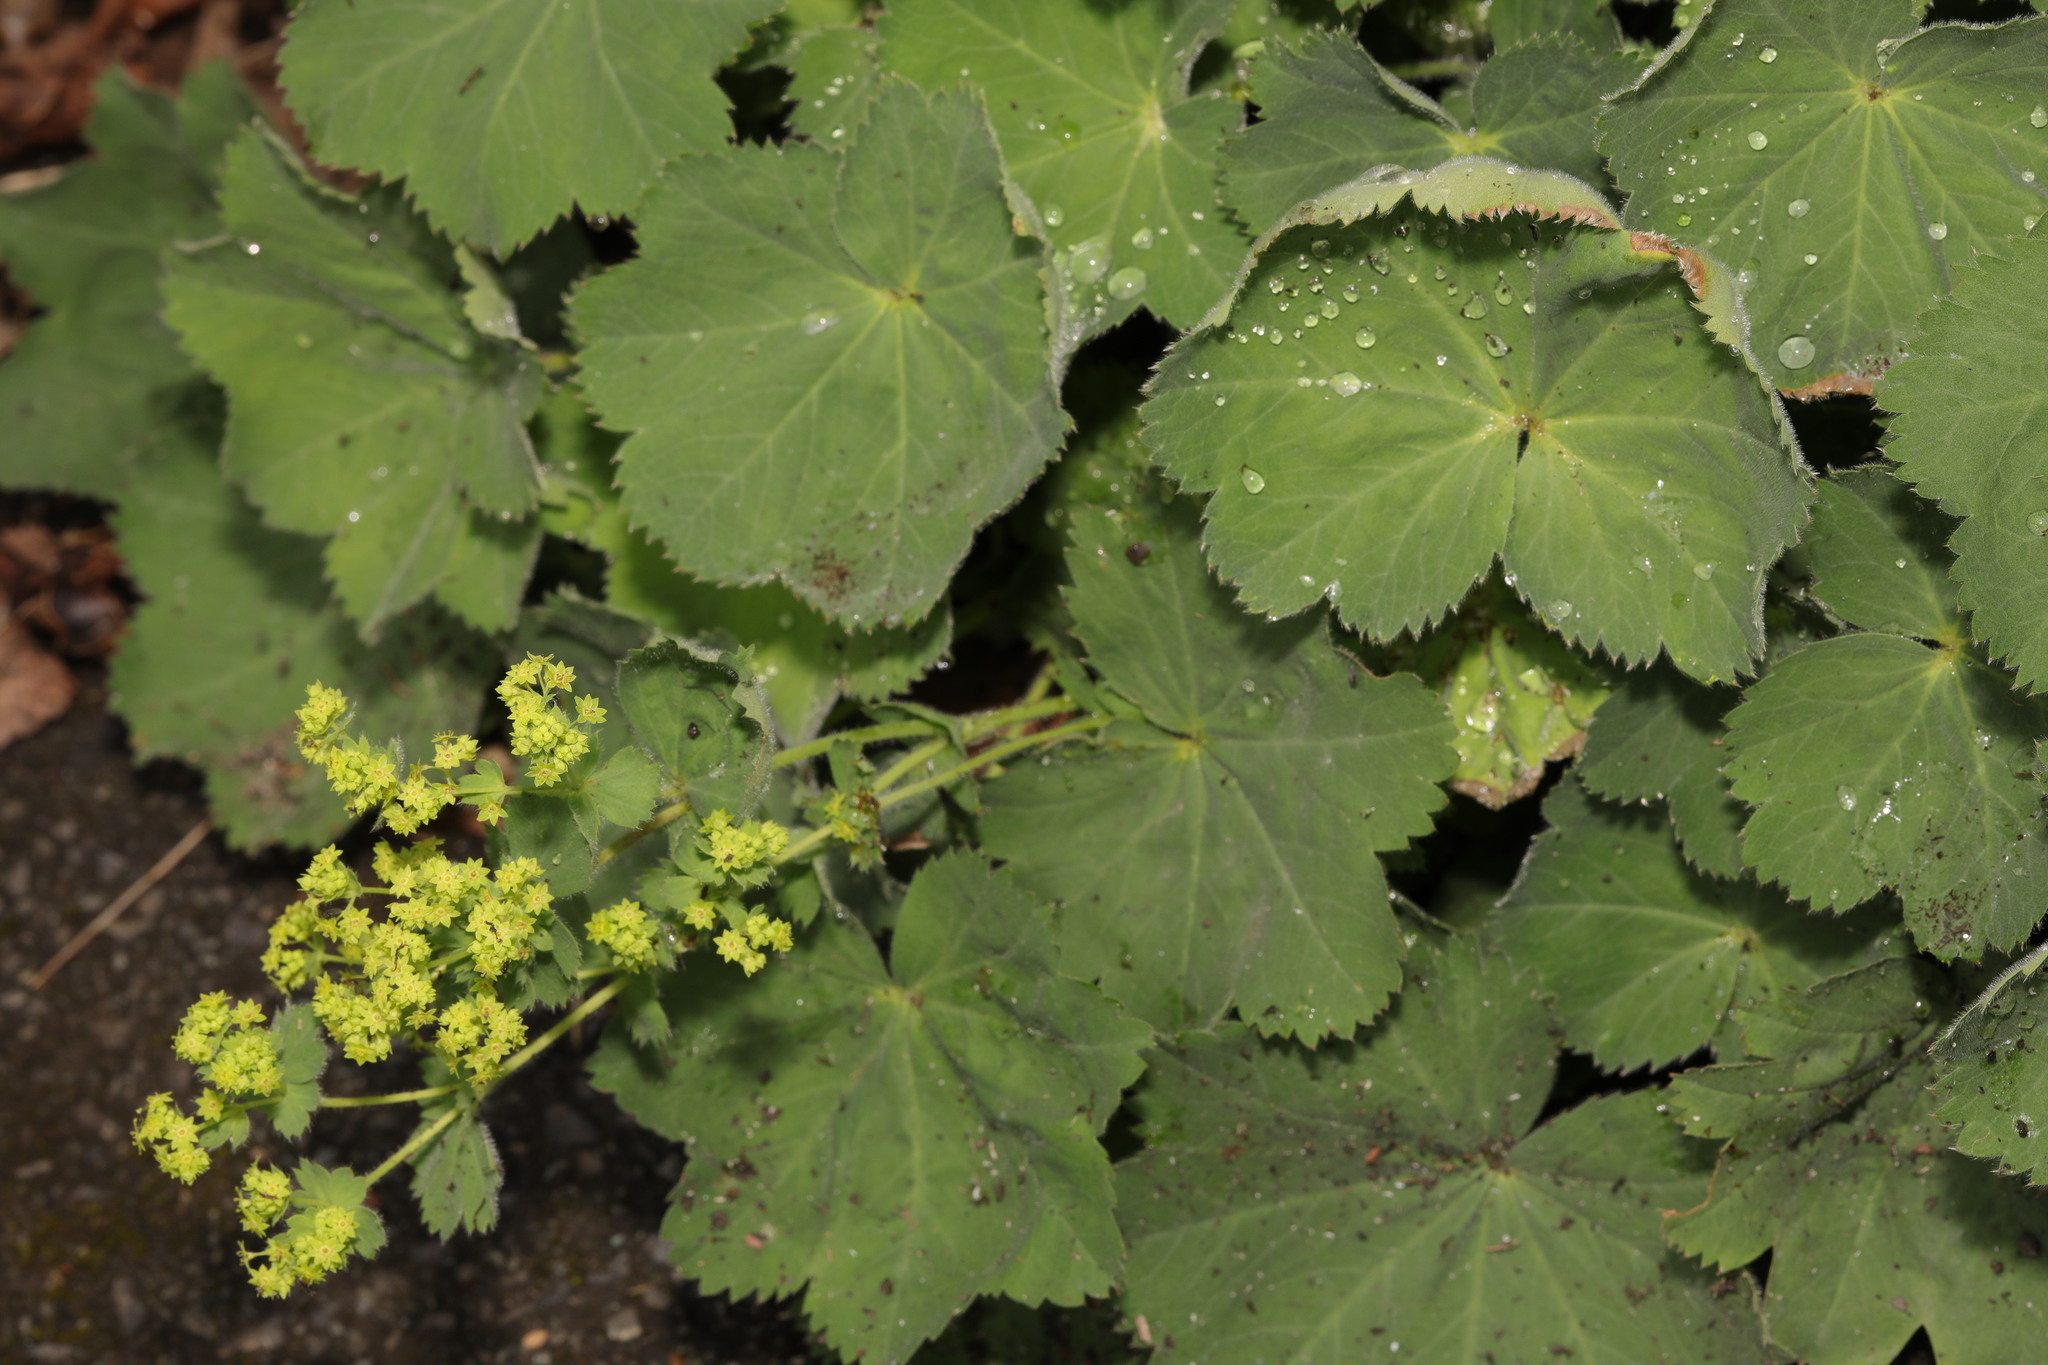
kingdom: Plantae
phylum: Tracheophyta
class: Magnoliopsida
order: Rosales
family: Rosaceae
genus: Alchemilla
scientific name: Alchemilla mollis
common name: Lady's-mantle
